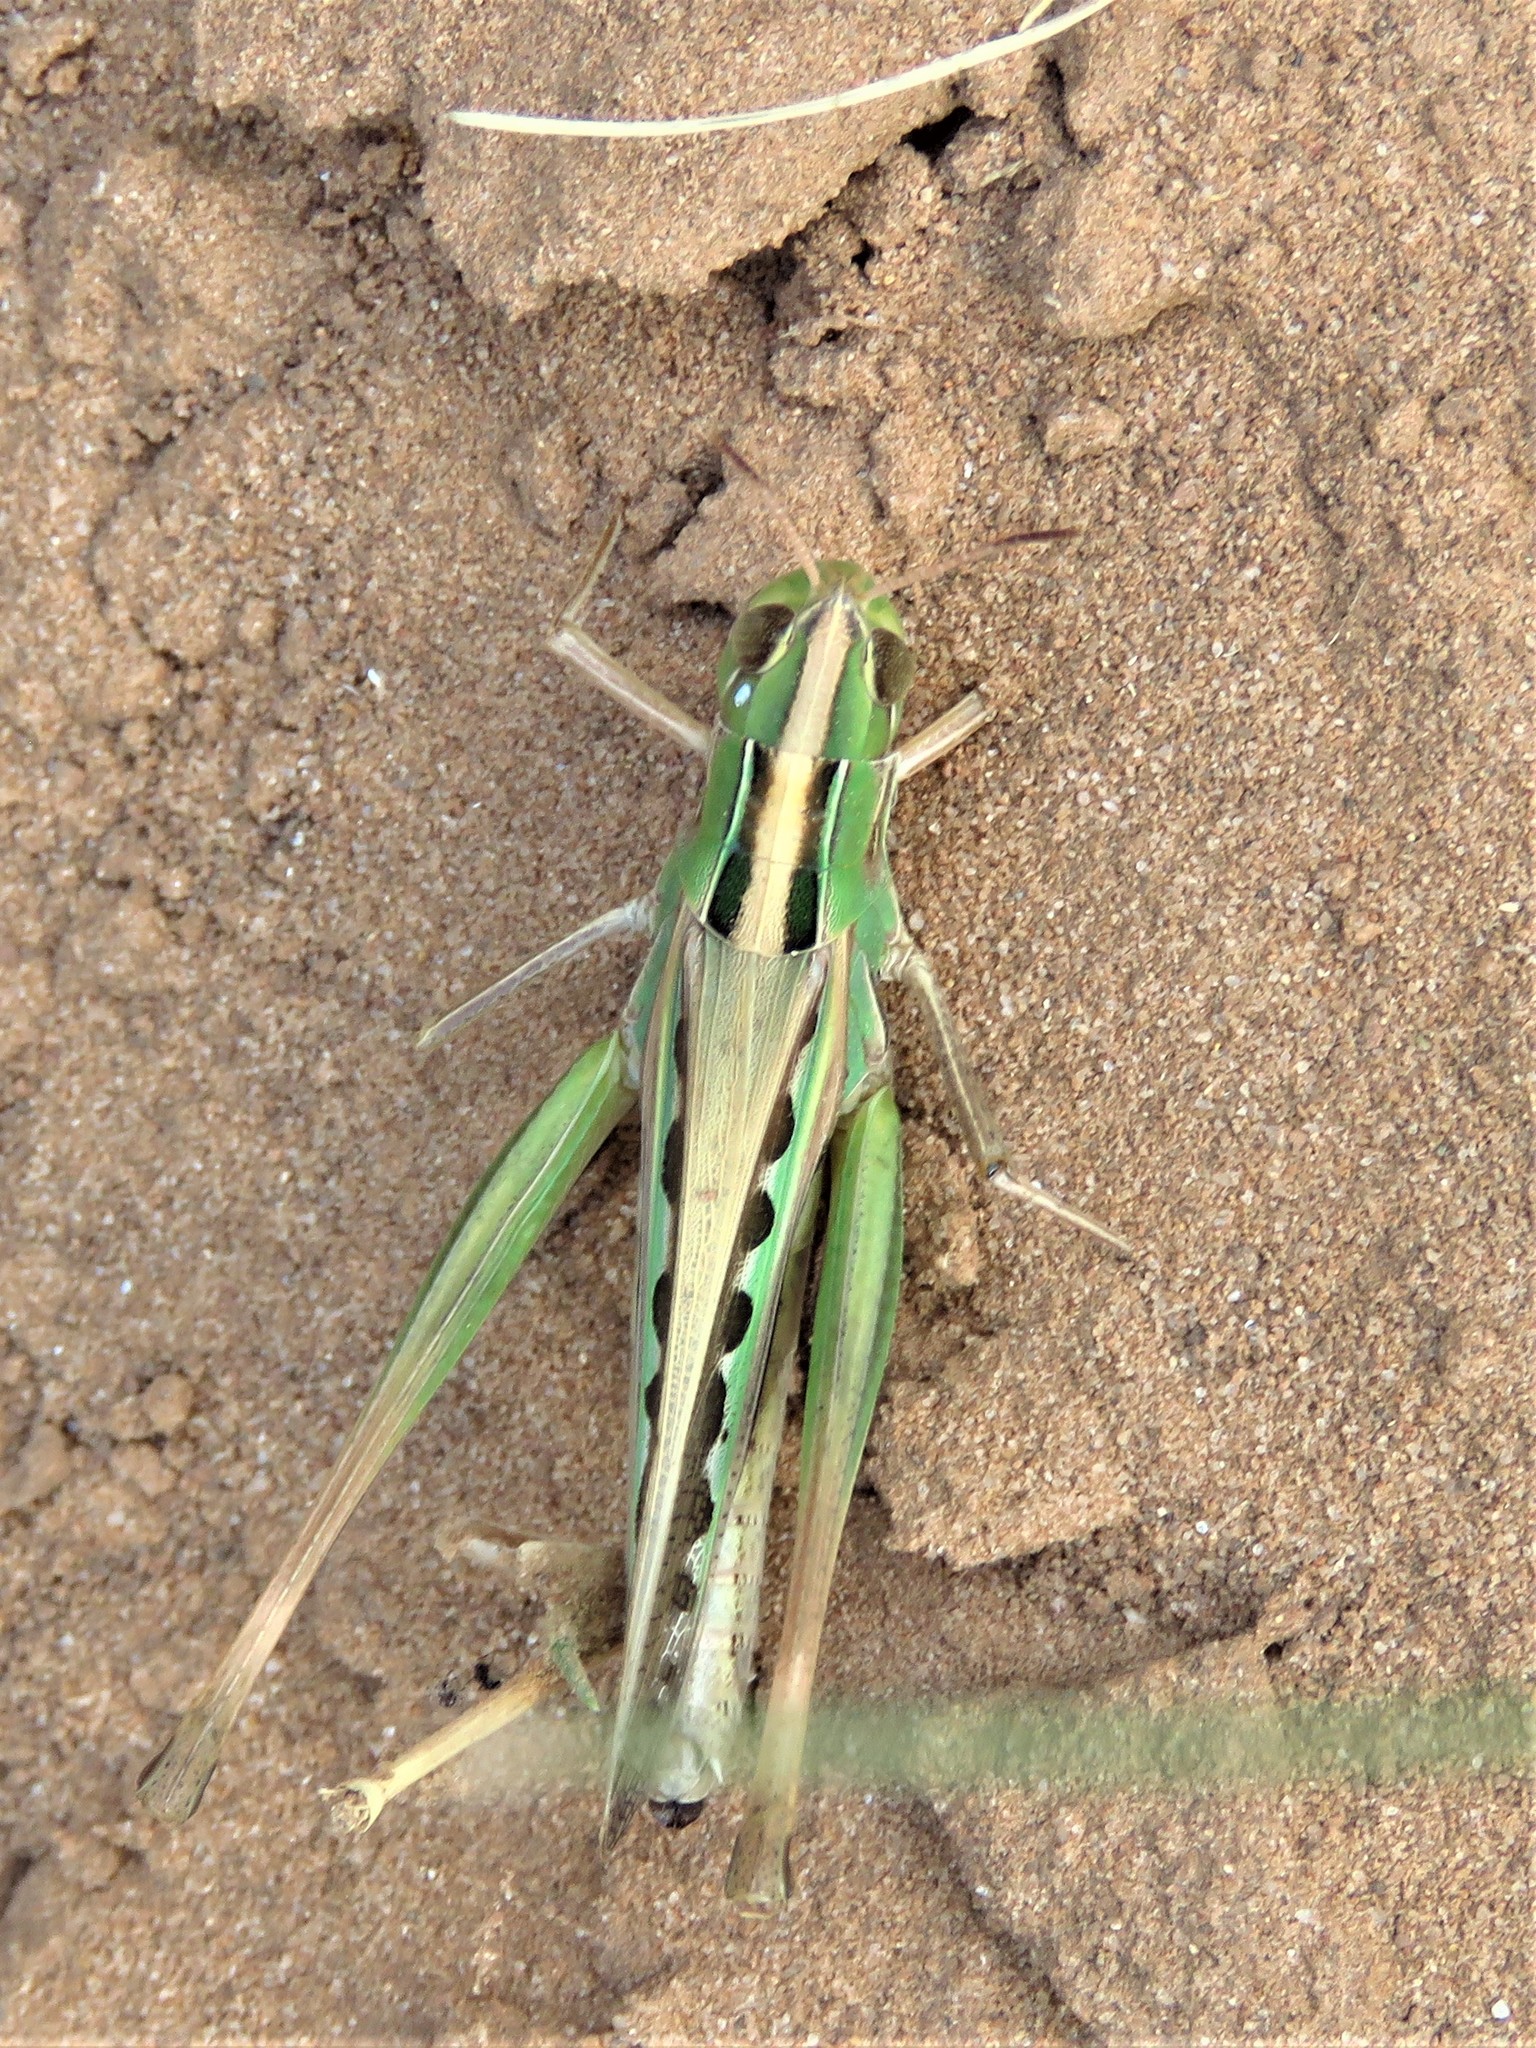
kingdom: Animalia
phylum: Arthropoda
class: Insecta
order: Orthoptera
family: Acrididae
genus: Syrbula
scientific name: Syrbula admirabilis
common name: Handsome grasshopper
